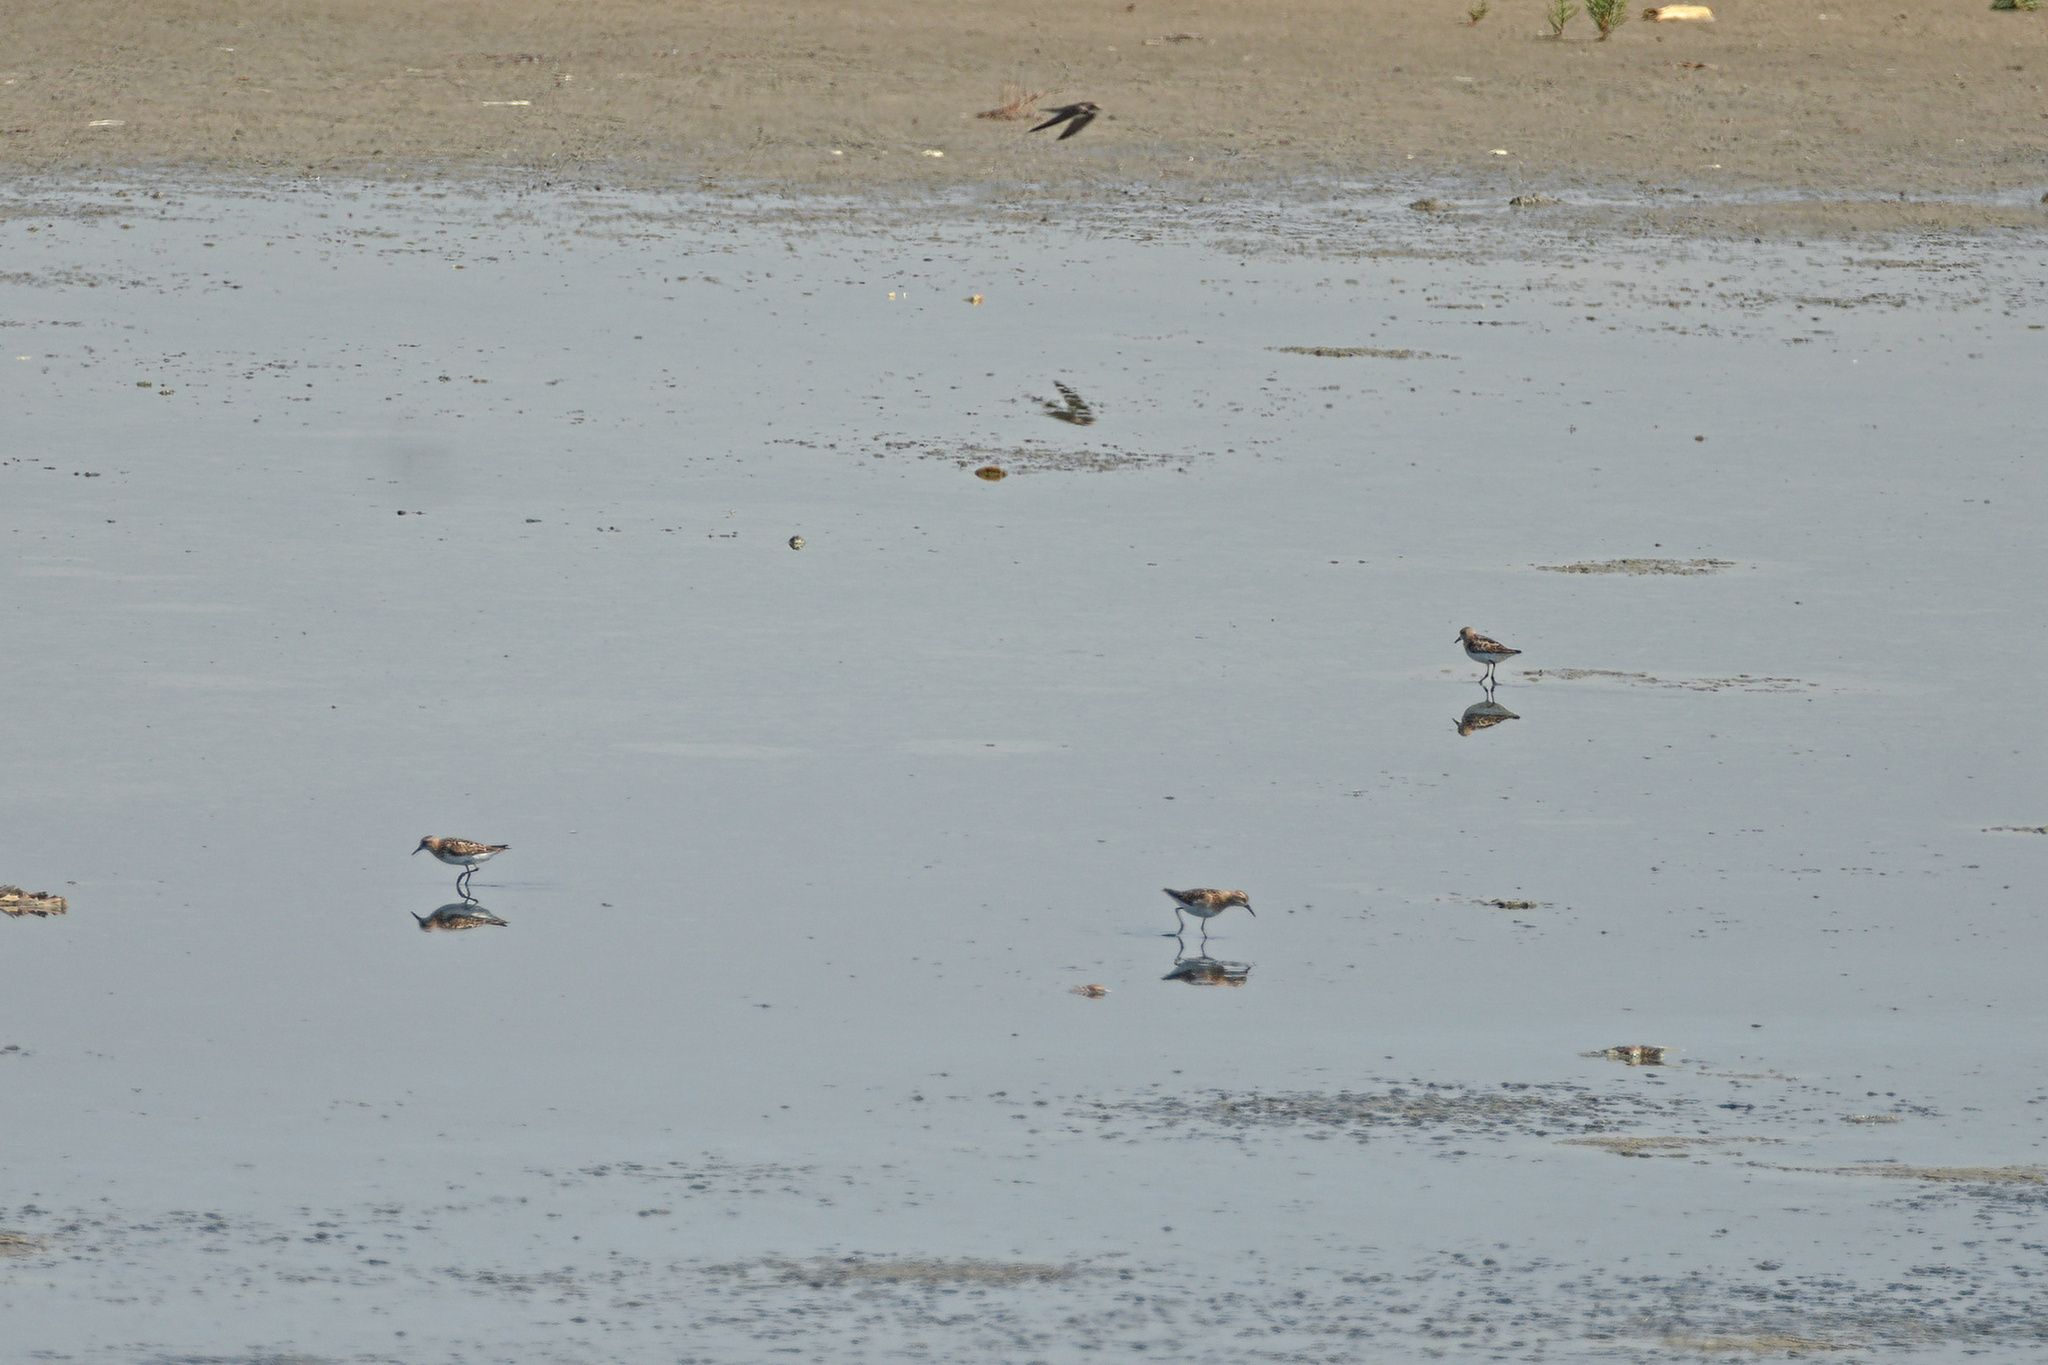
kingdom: Animalia
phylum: Chordata
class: Aves
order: Charadriiformes
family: Scolopacidae
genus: Calidris
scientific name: Calidris minuta
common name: Little stint
